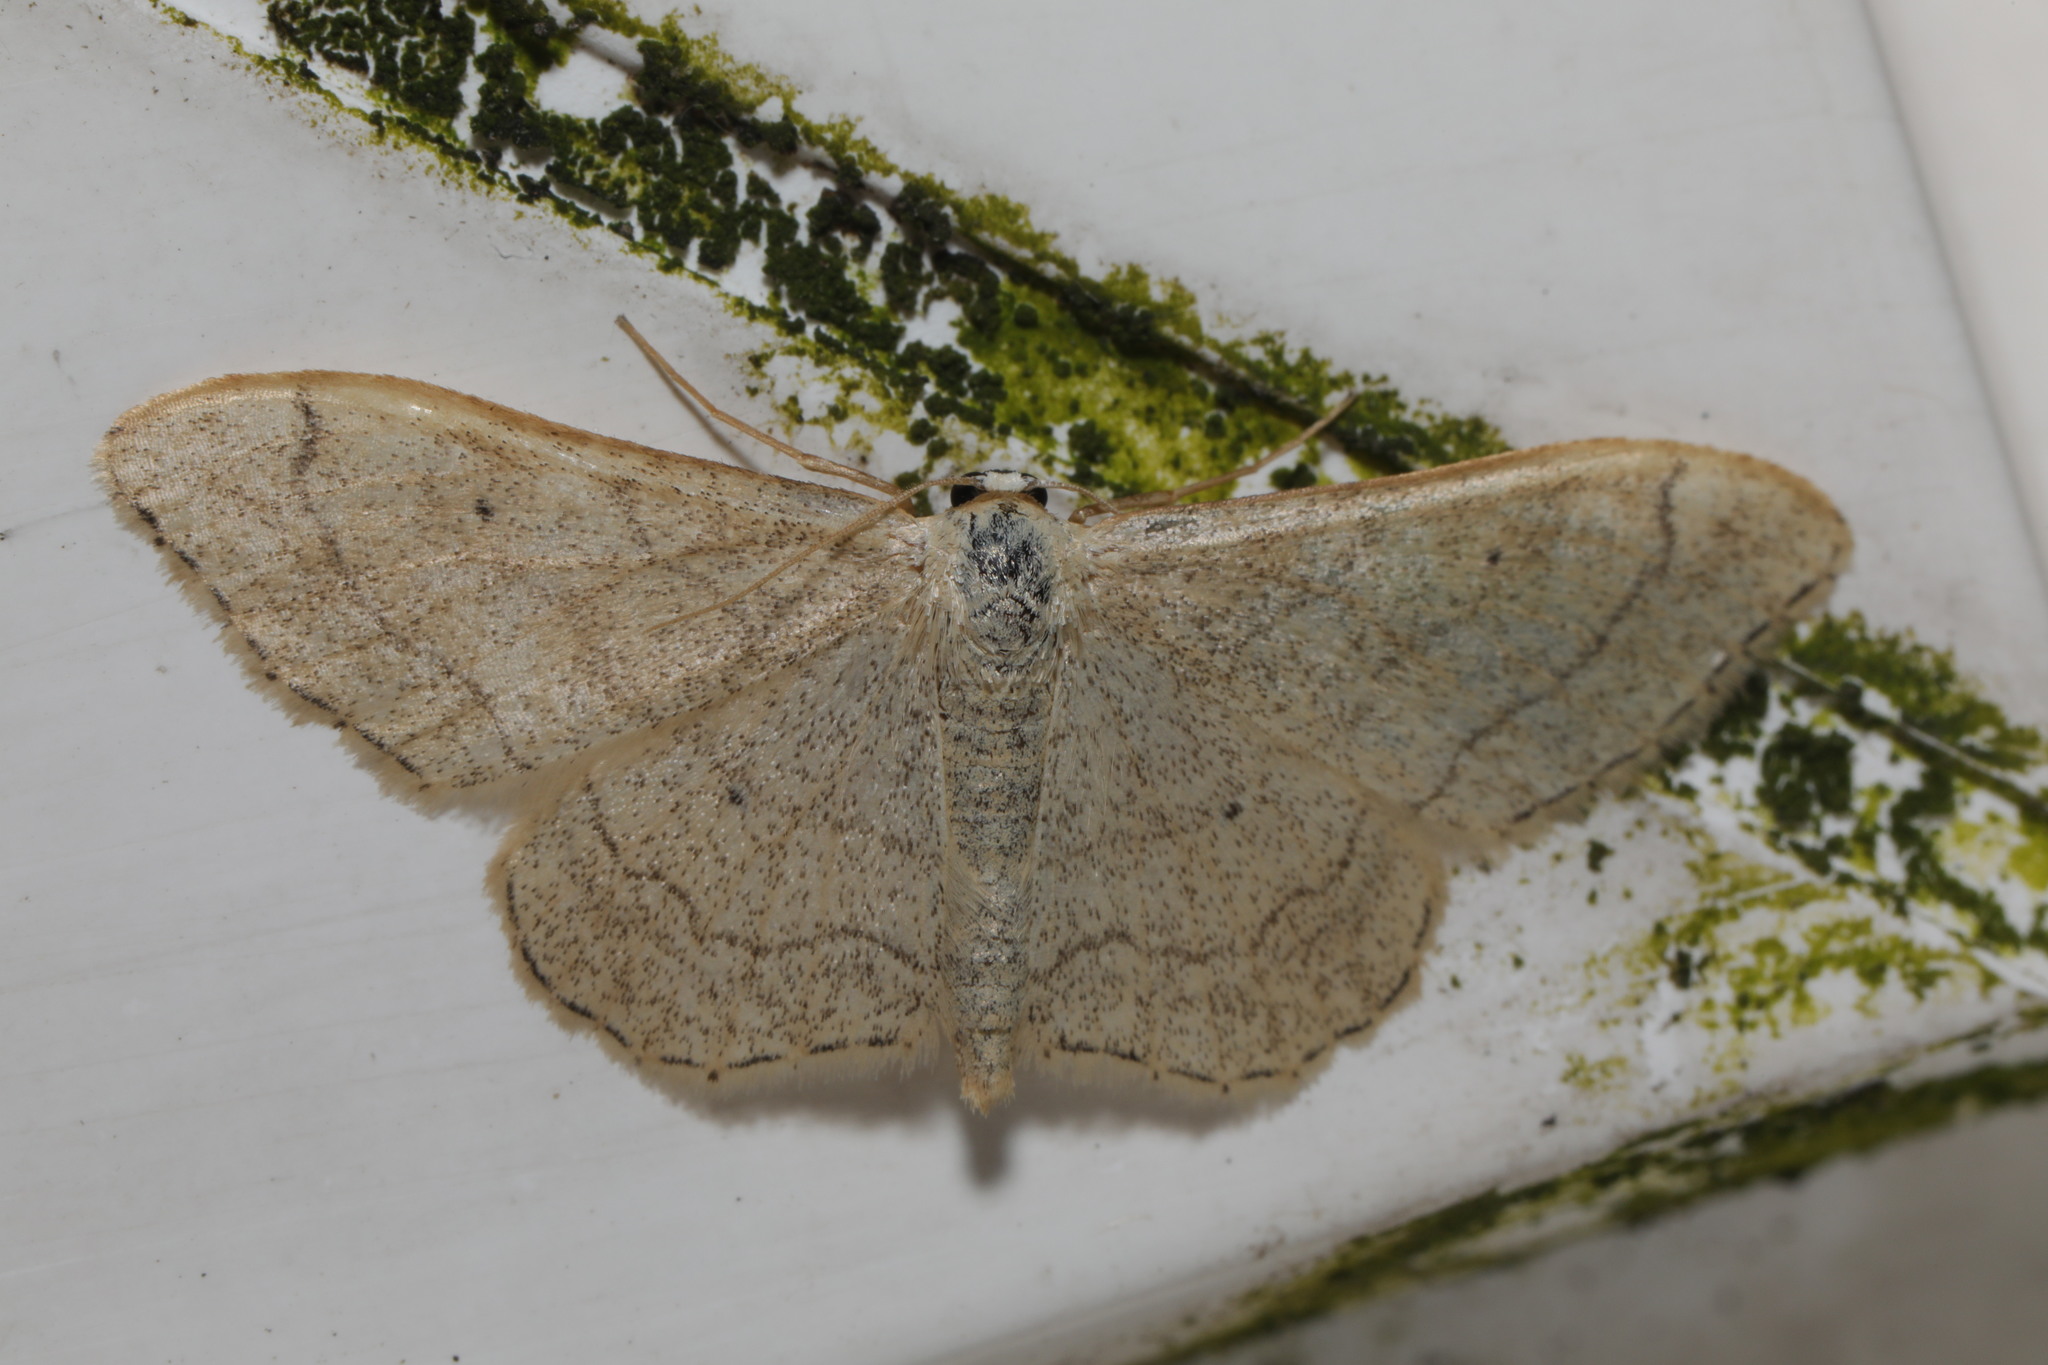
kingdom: Animalia
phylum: Arthropoda
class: Insecta
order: Lepidoptera
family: Geometridae
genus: Idaea
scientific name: Idaea aversata
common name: Riband wave
